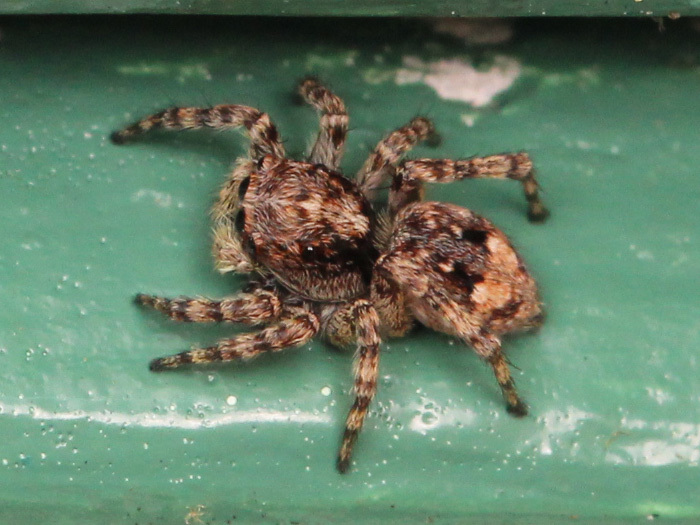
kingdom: Animalia
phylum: Arthropoda
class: Arachnida
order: Araneae
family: Salticidae
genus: Attulus
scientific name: Attulus fasciger
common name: Asiatic wall jumping spider
